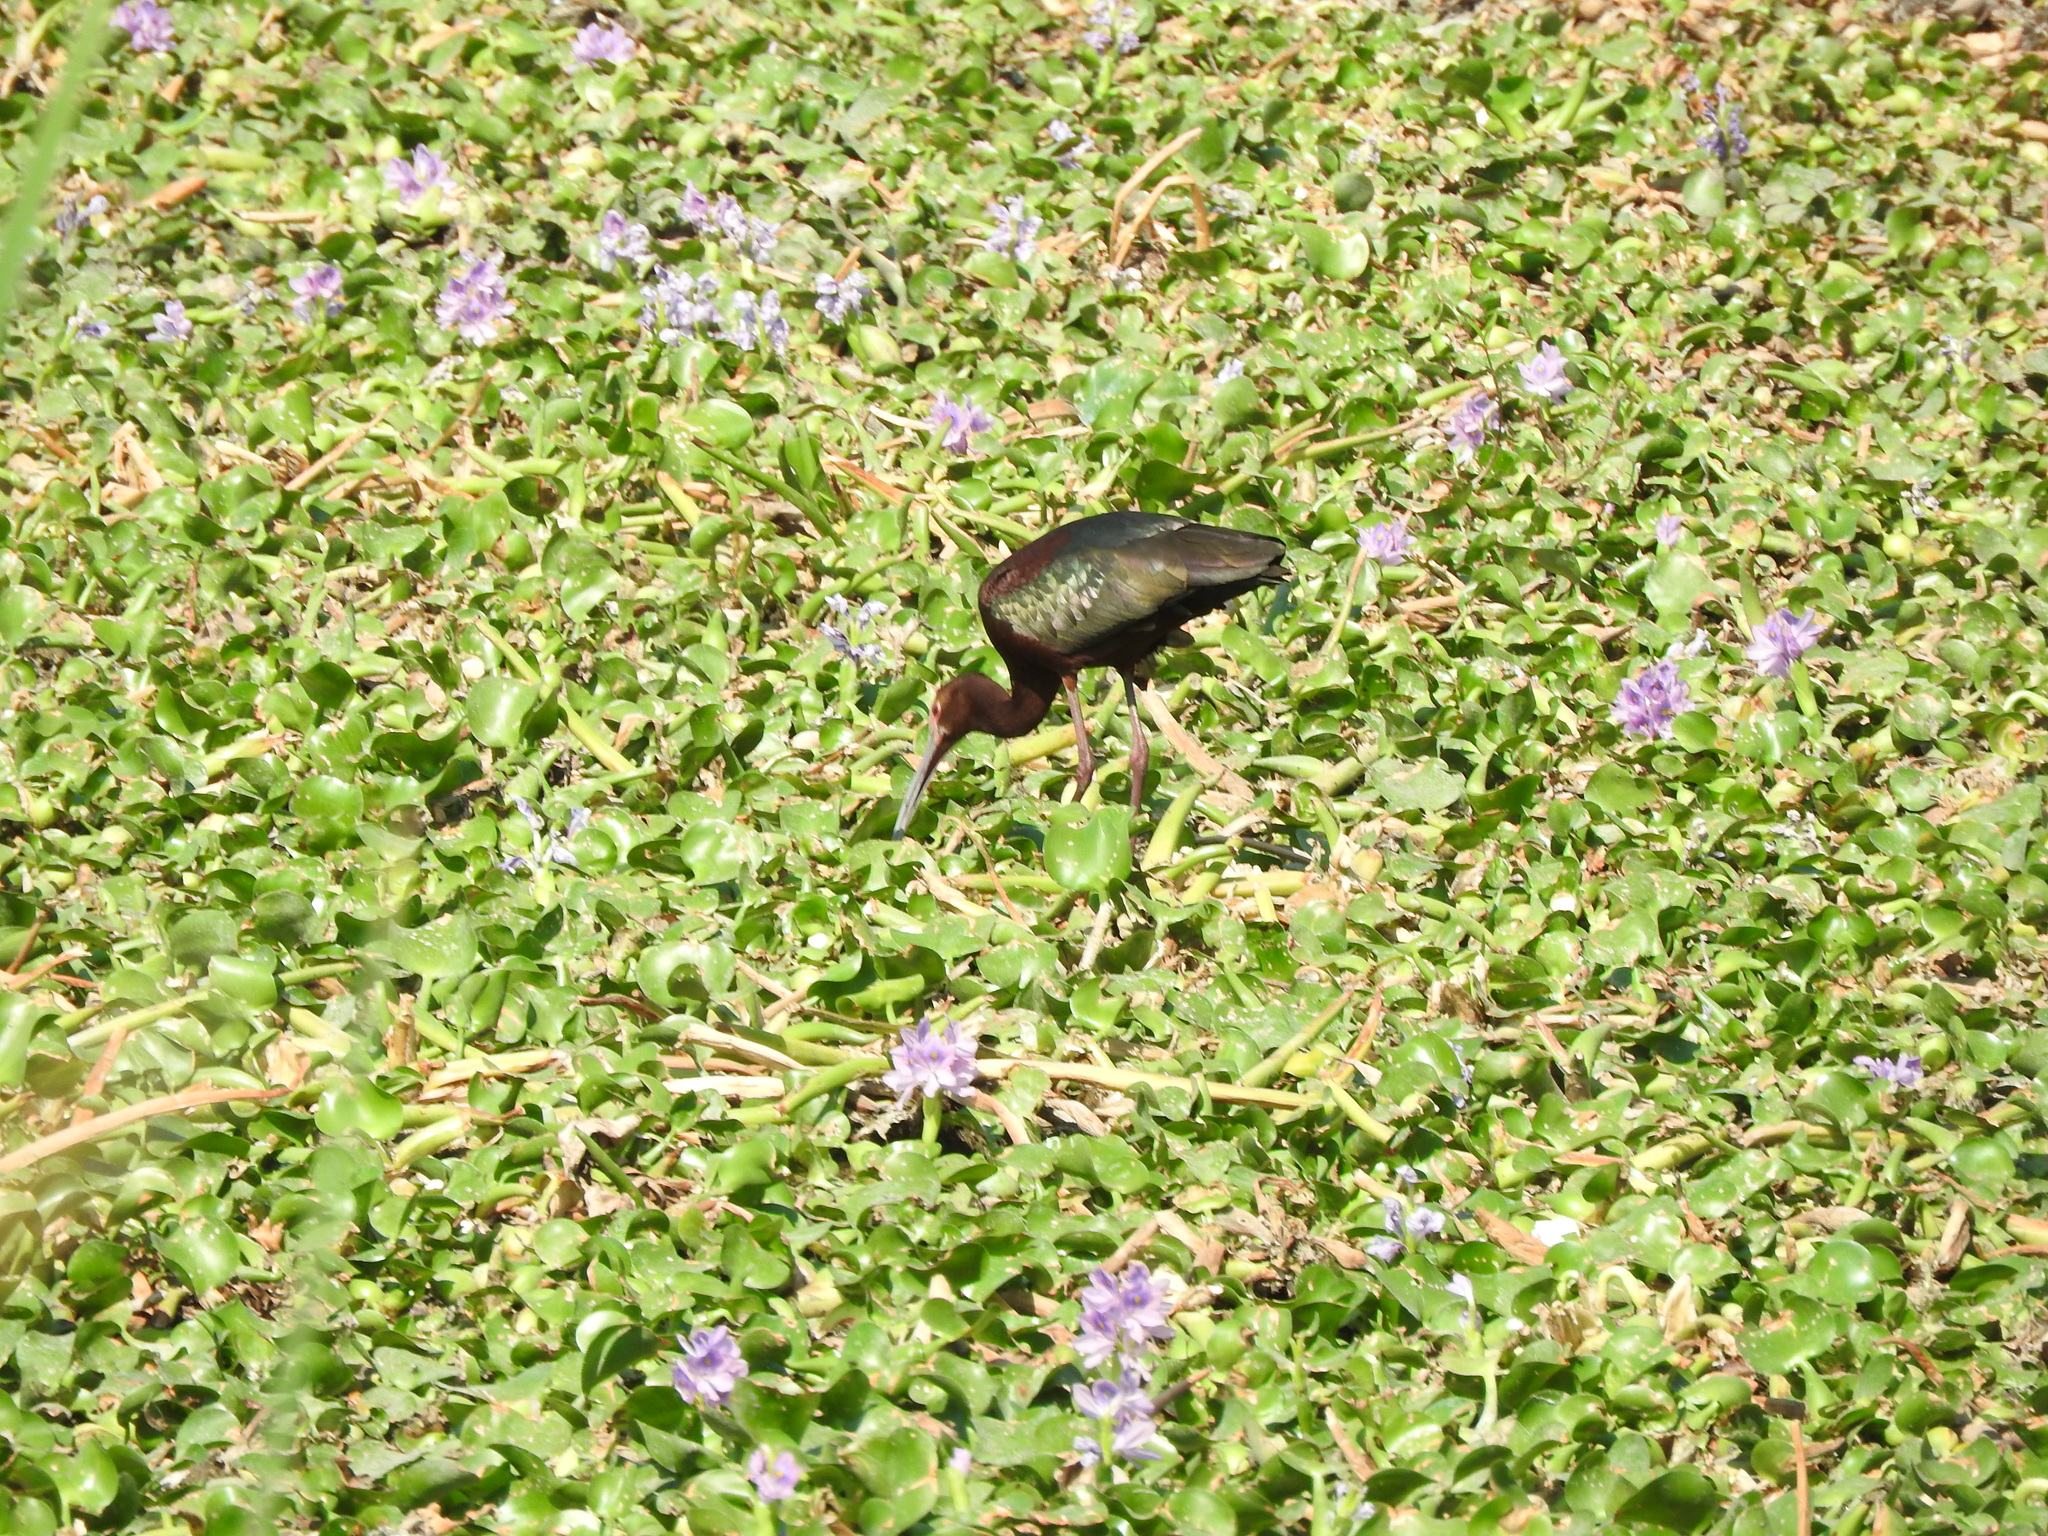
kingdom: Animalia
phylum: Chordata
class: Aves
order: Pelecaniformes
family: Threskiornithidae
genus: Plegadis
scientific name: Plegadis chihi
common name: White-faced ibis
